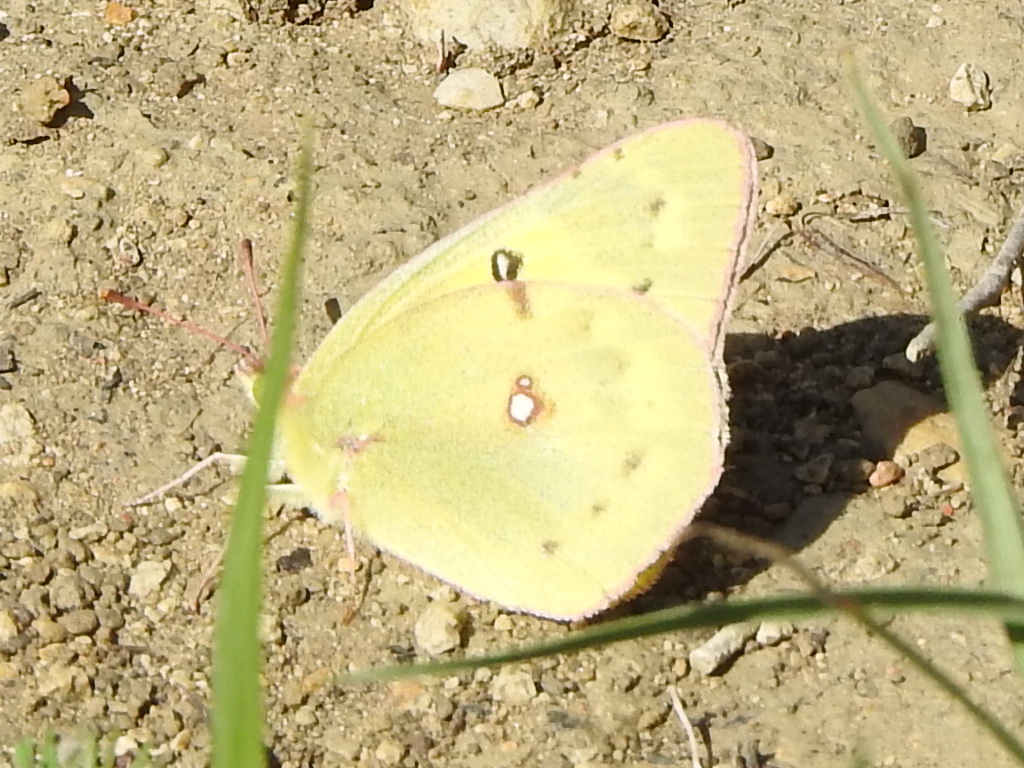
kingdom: Animalia
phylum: Arthropoda
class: Insecta
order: Lepidoptera
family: Pieridae
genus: Colias
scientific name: Colias eurytheme
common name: Alfalfa butterfly
